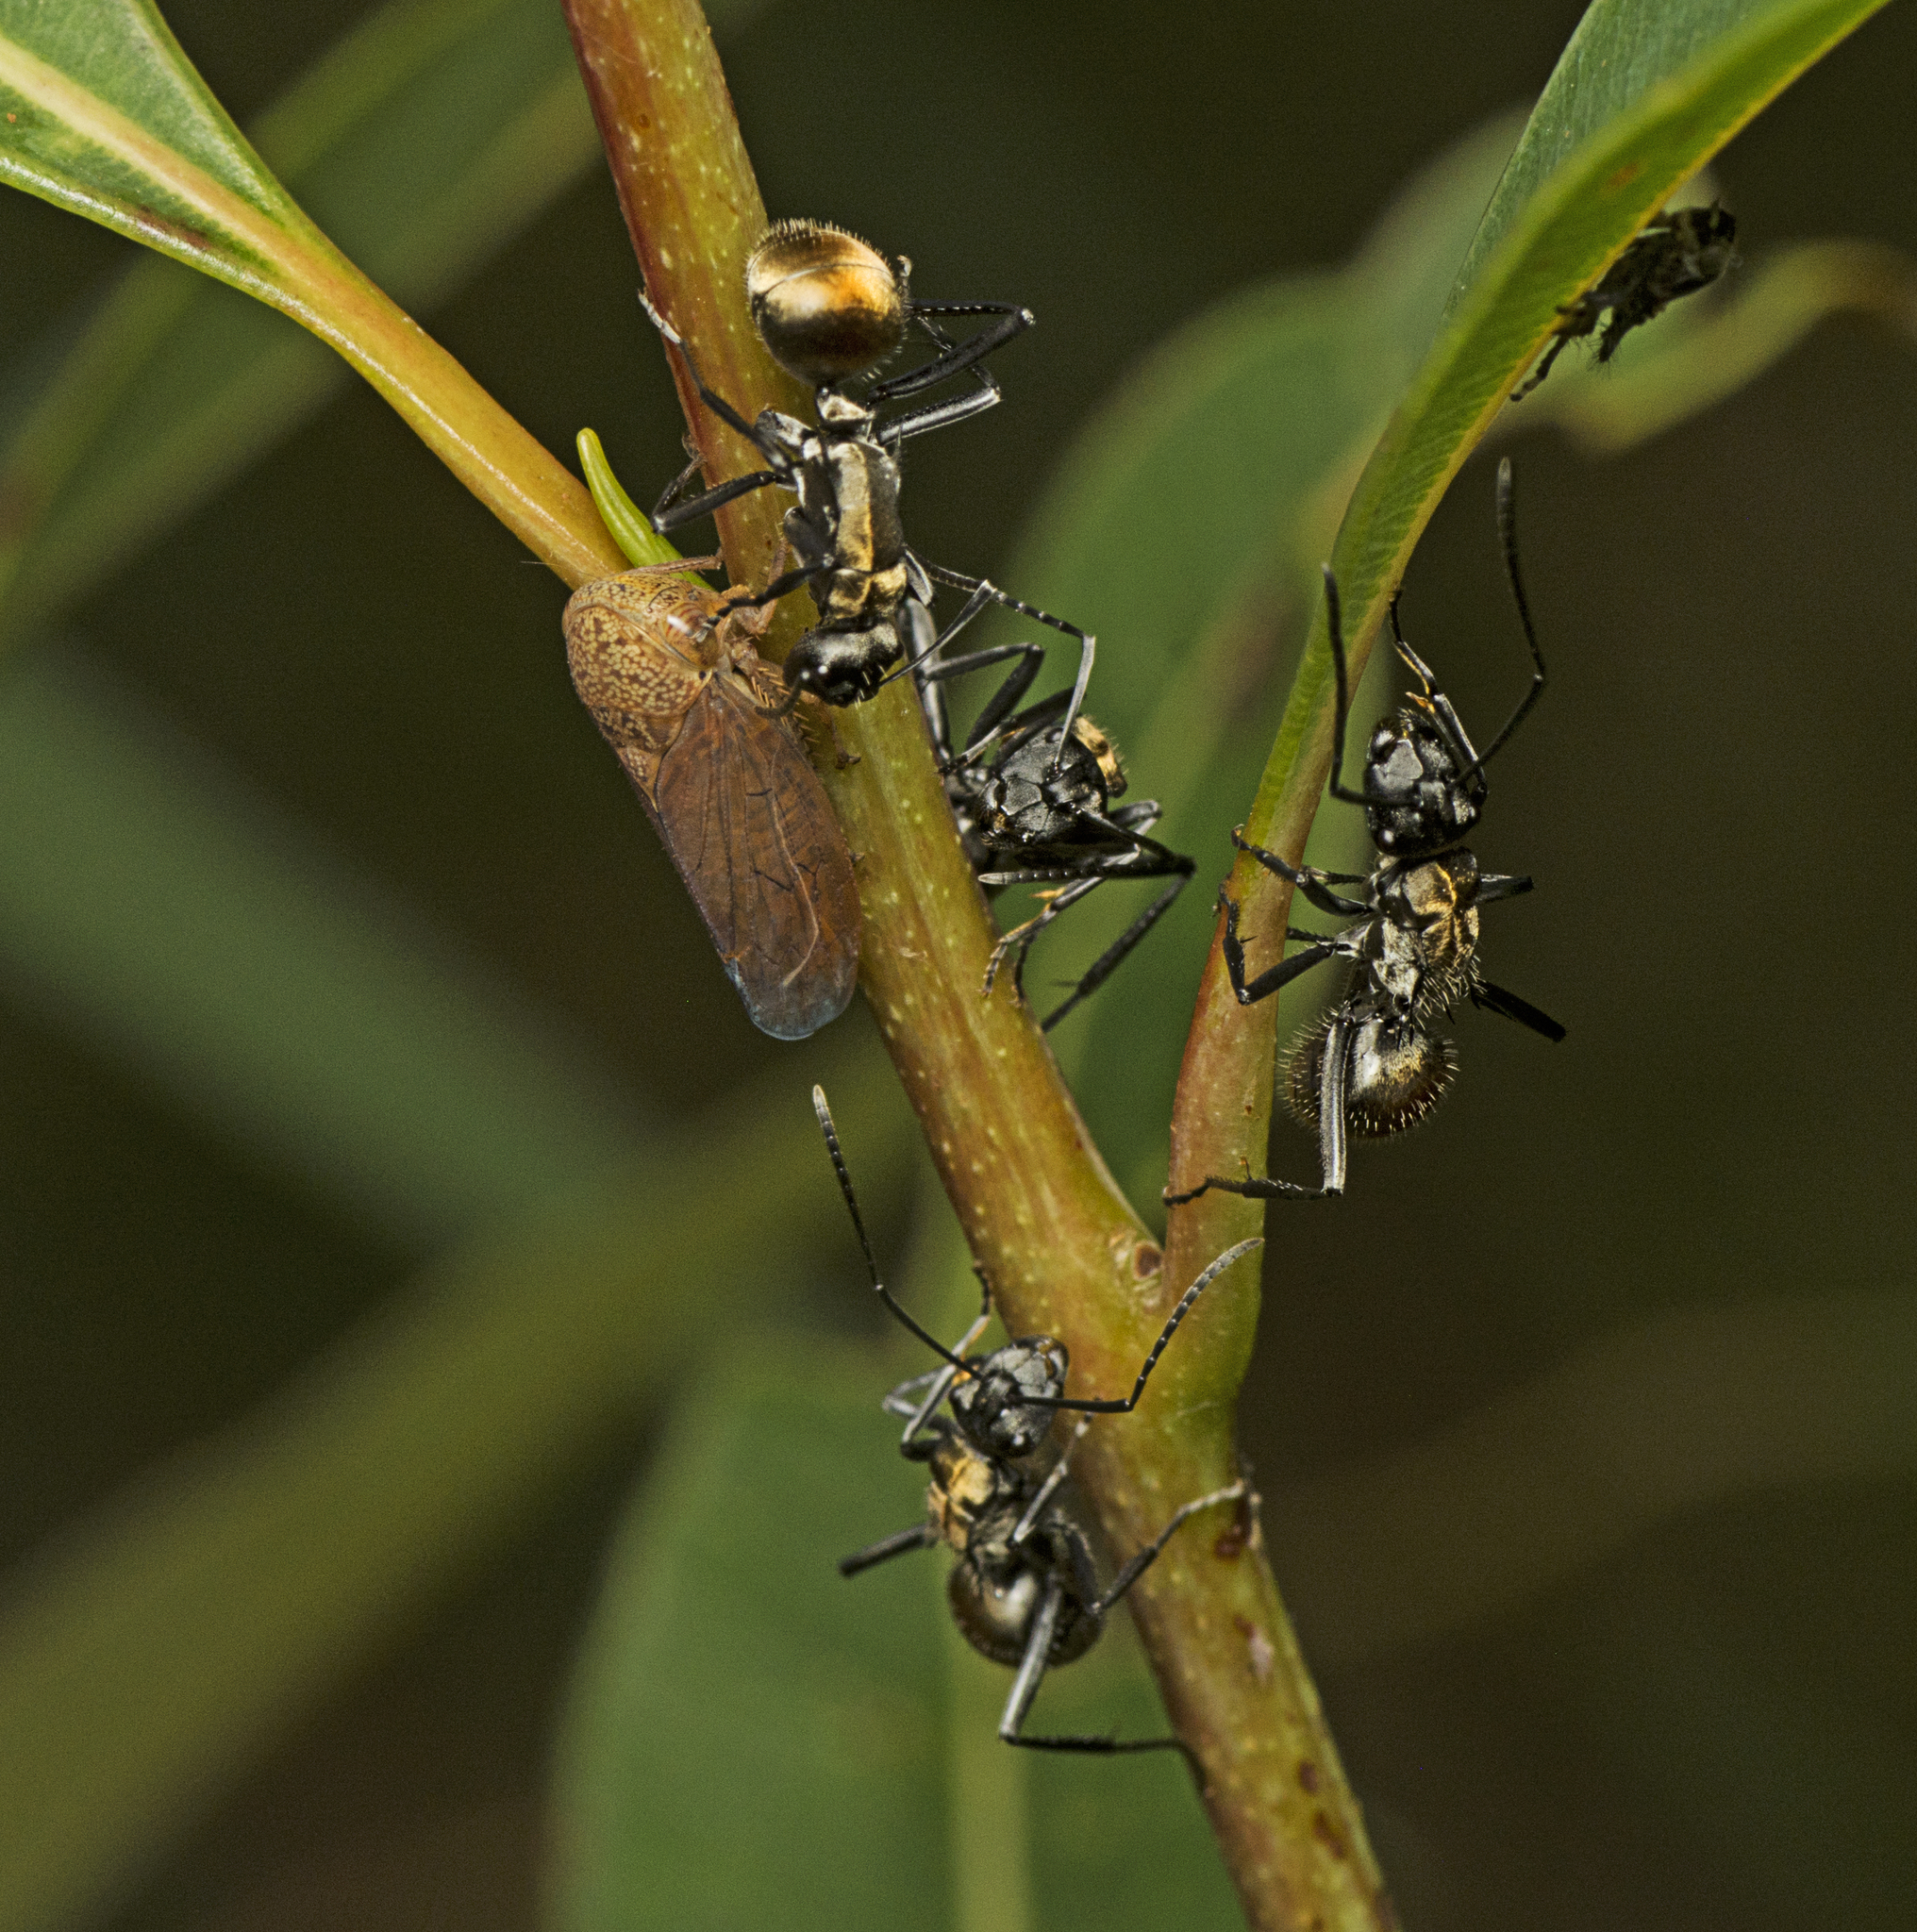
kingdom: Animalia
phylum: Arthropoda
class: Insecta
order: Hymenoptera
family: Formicidae
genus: Polyrhachis
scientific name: Polyrhachis ammon
